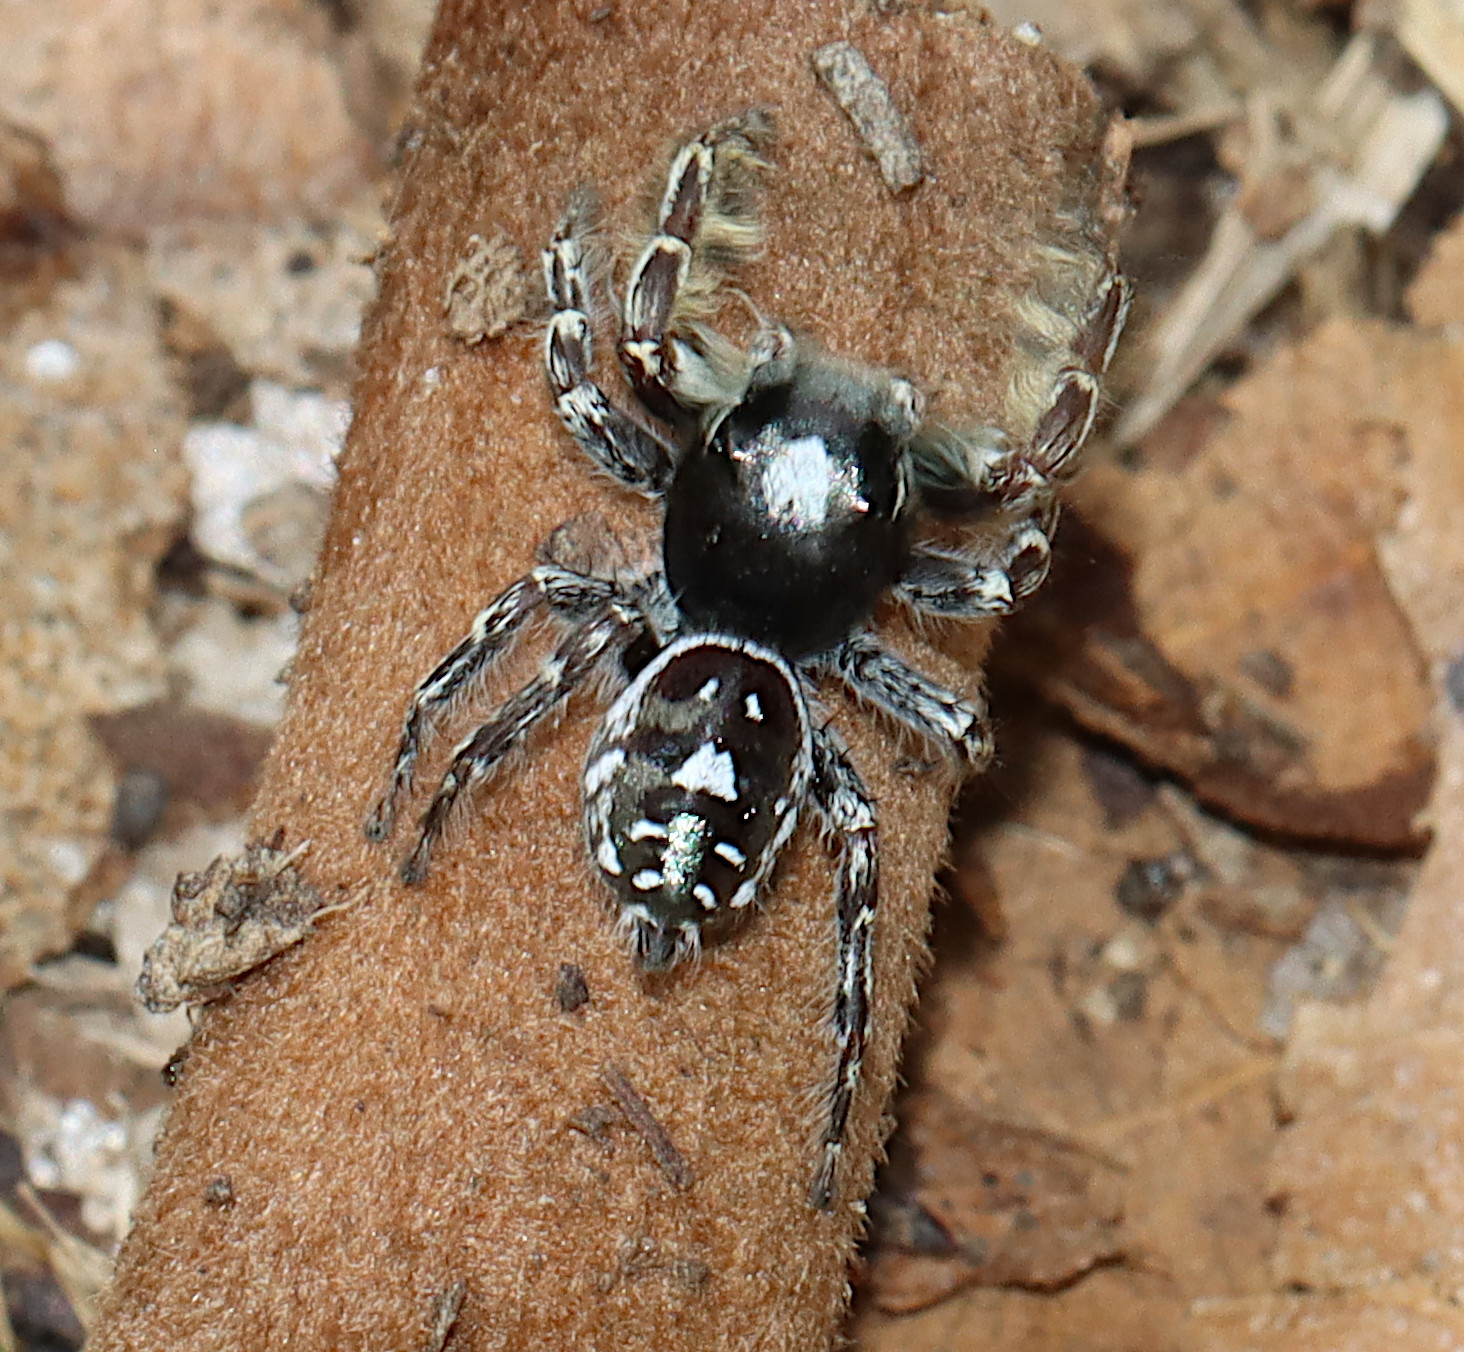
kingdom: Animalia
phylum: Arthropoda
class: Arachnida
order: Araneae
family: Salticidae
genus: Phidippus
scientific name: Phidippus putnami
